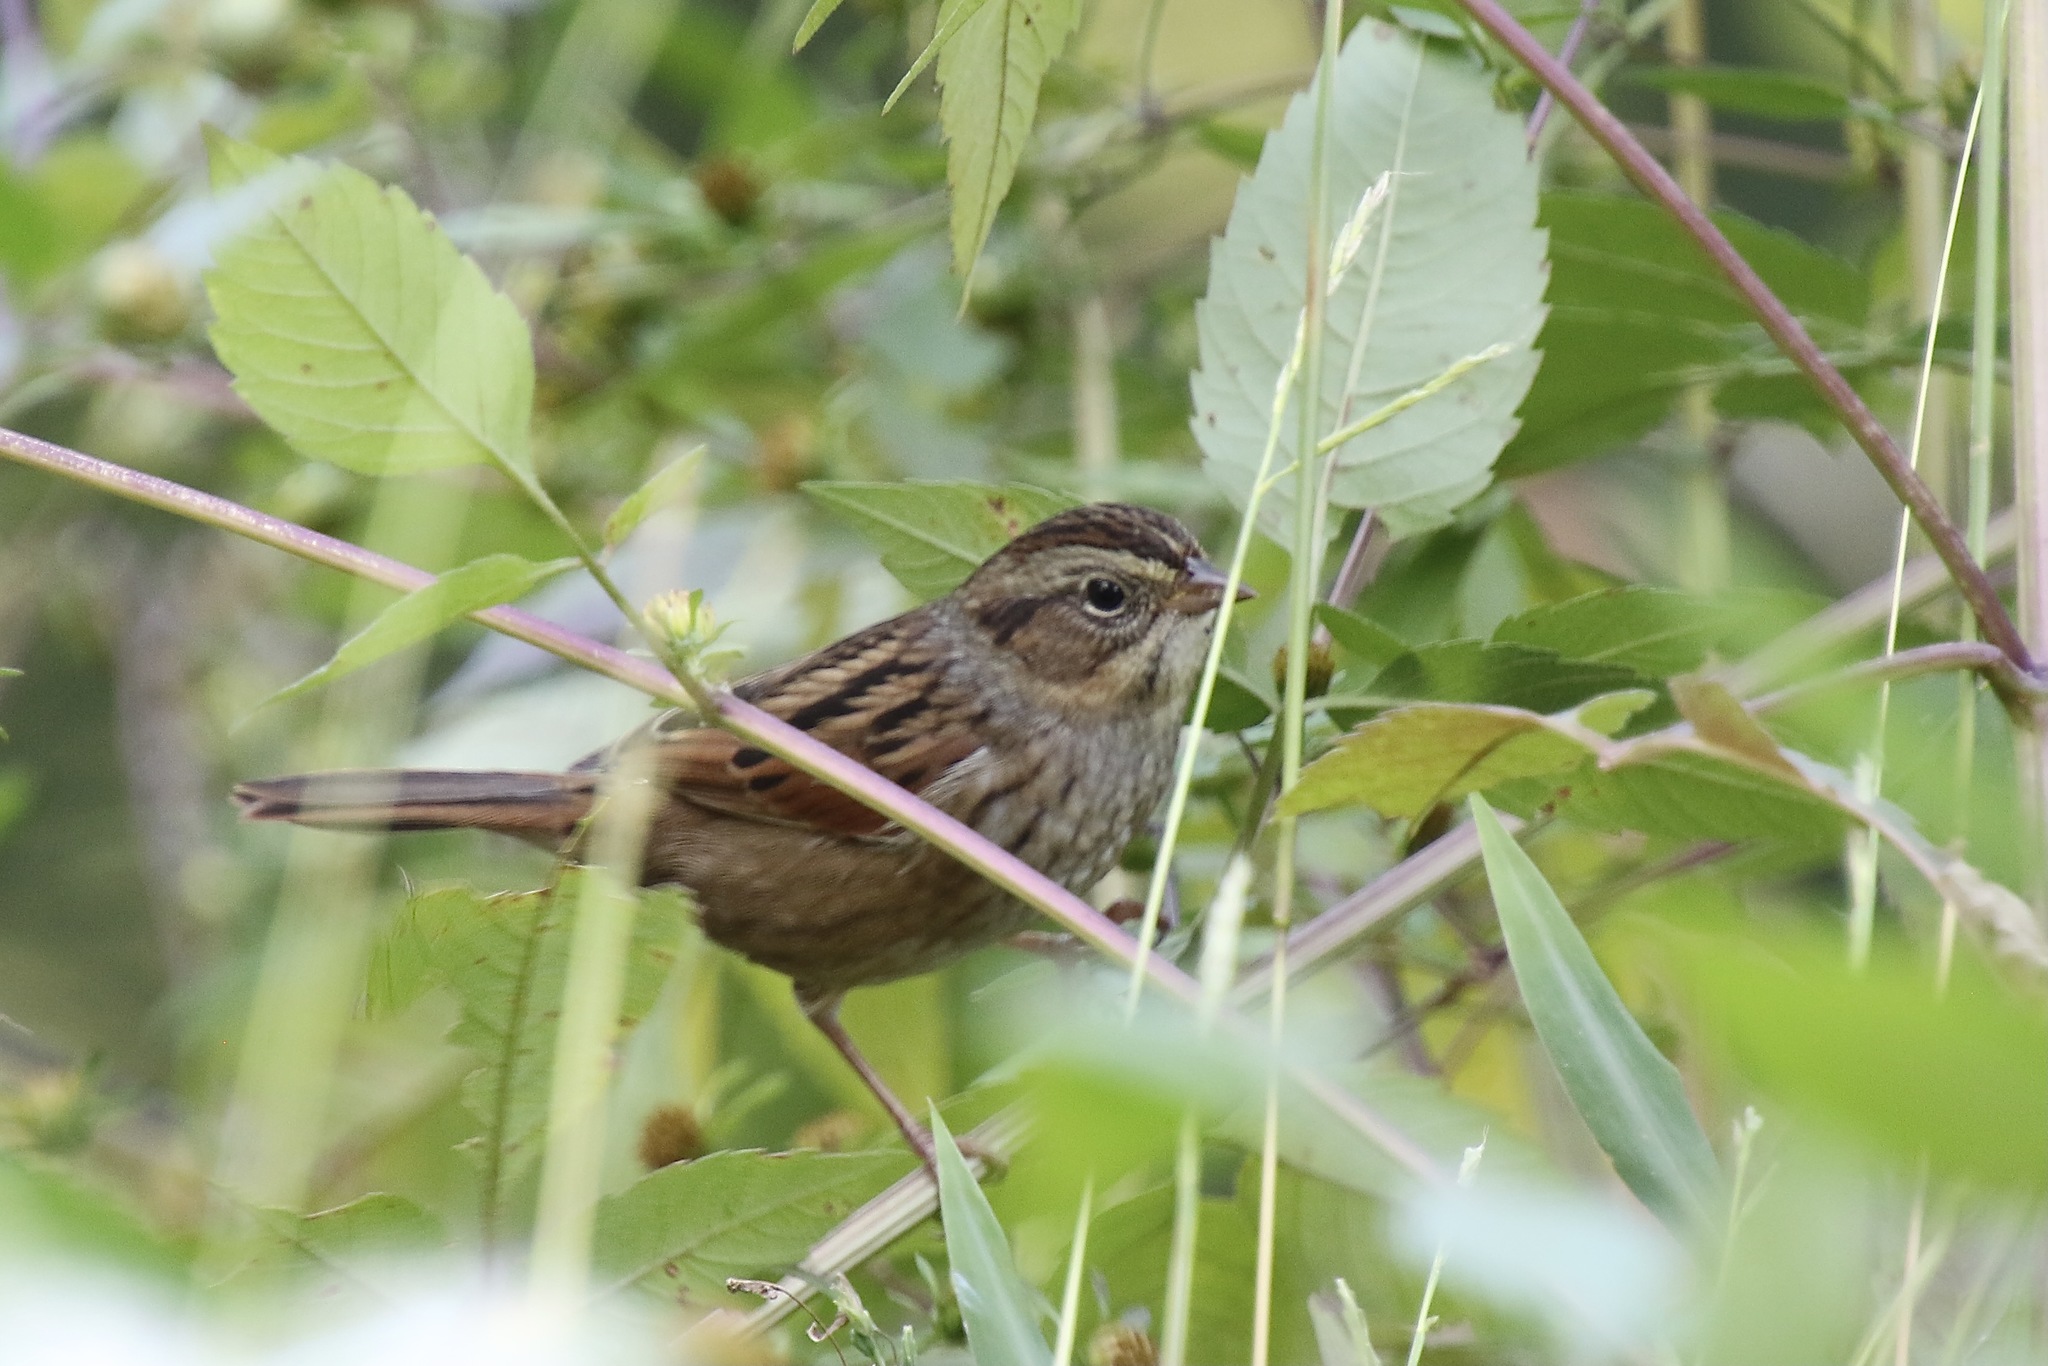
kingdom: Animalia
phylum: Chordata
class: Aves
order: Passeriformes
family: Passerellidae
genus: Melospiza
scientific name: Melospiza georgiana
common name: Swamp sparrow
